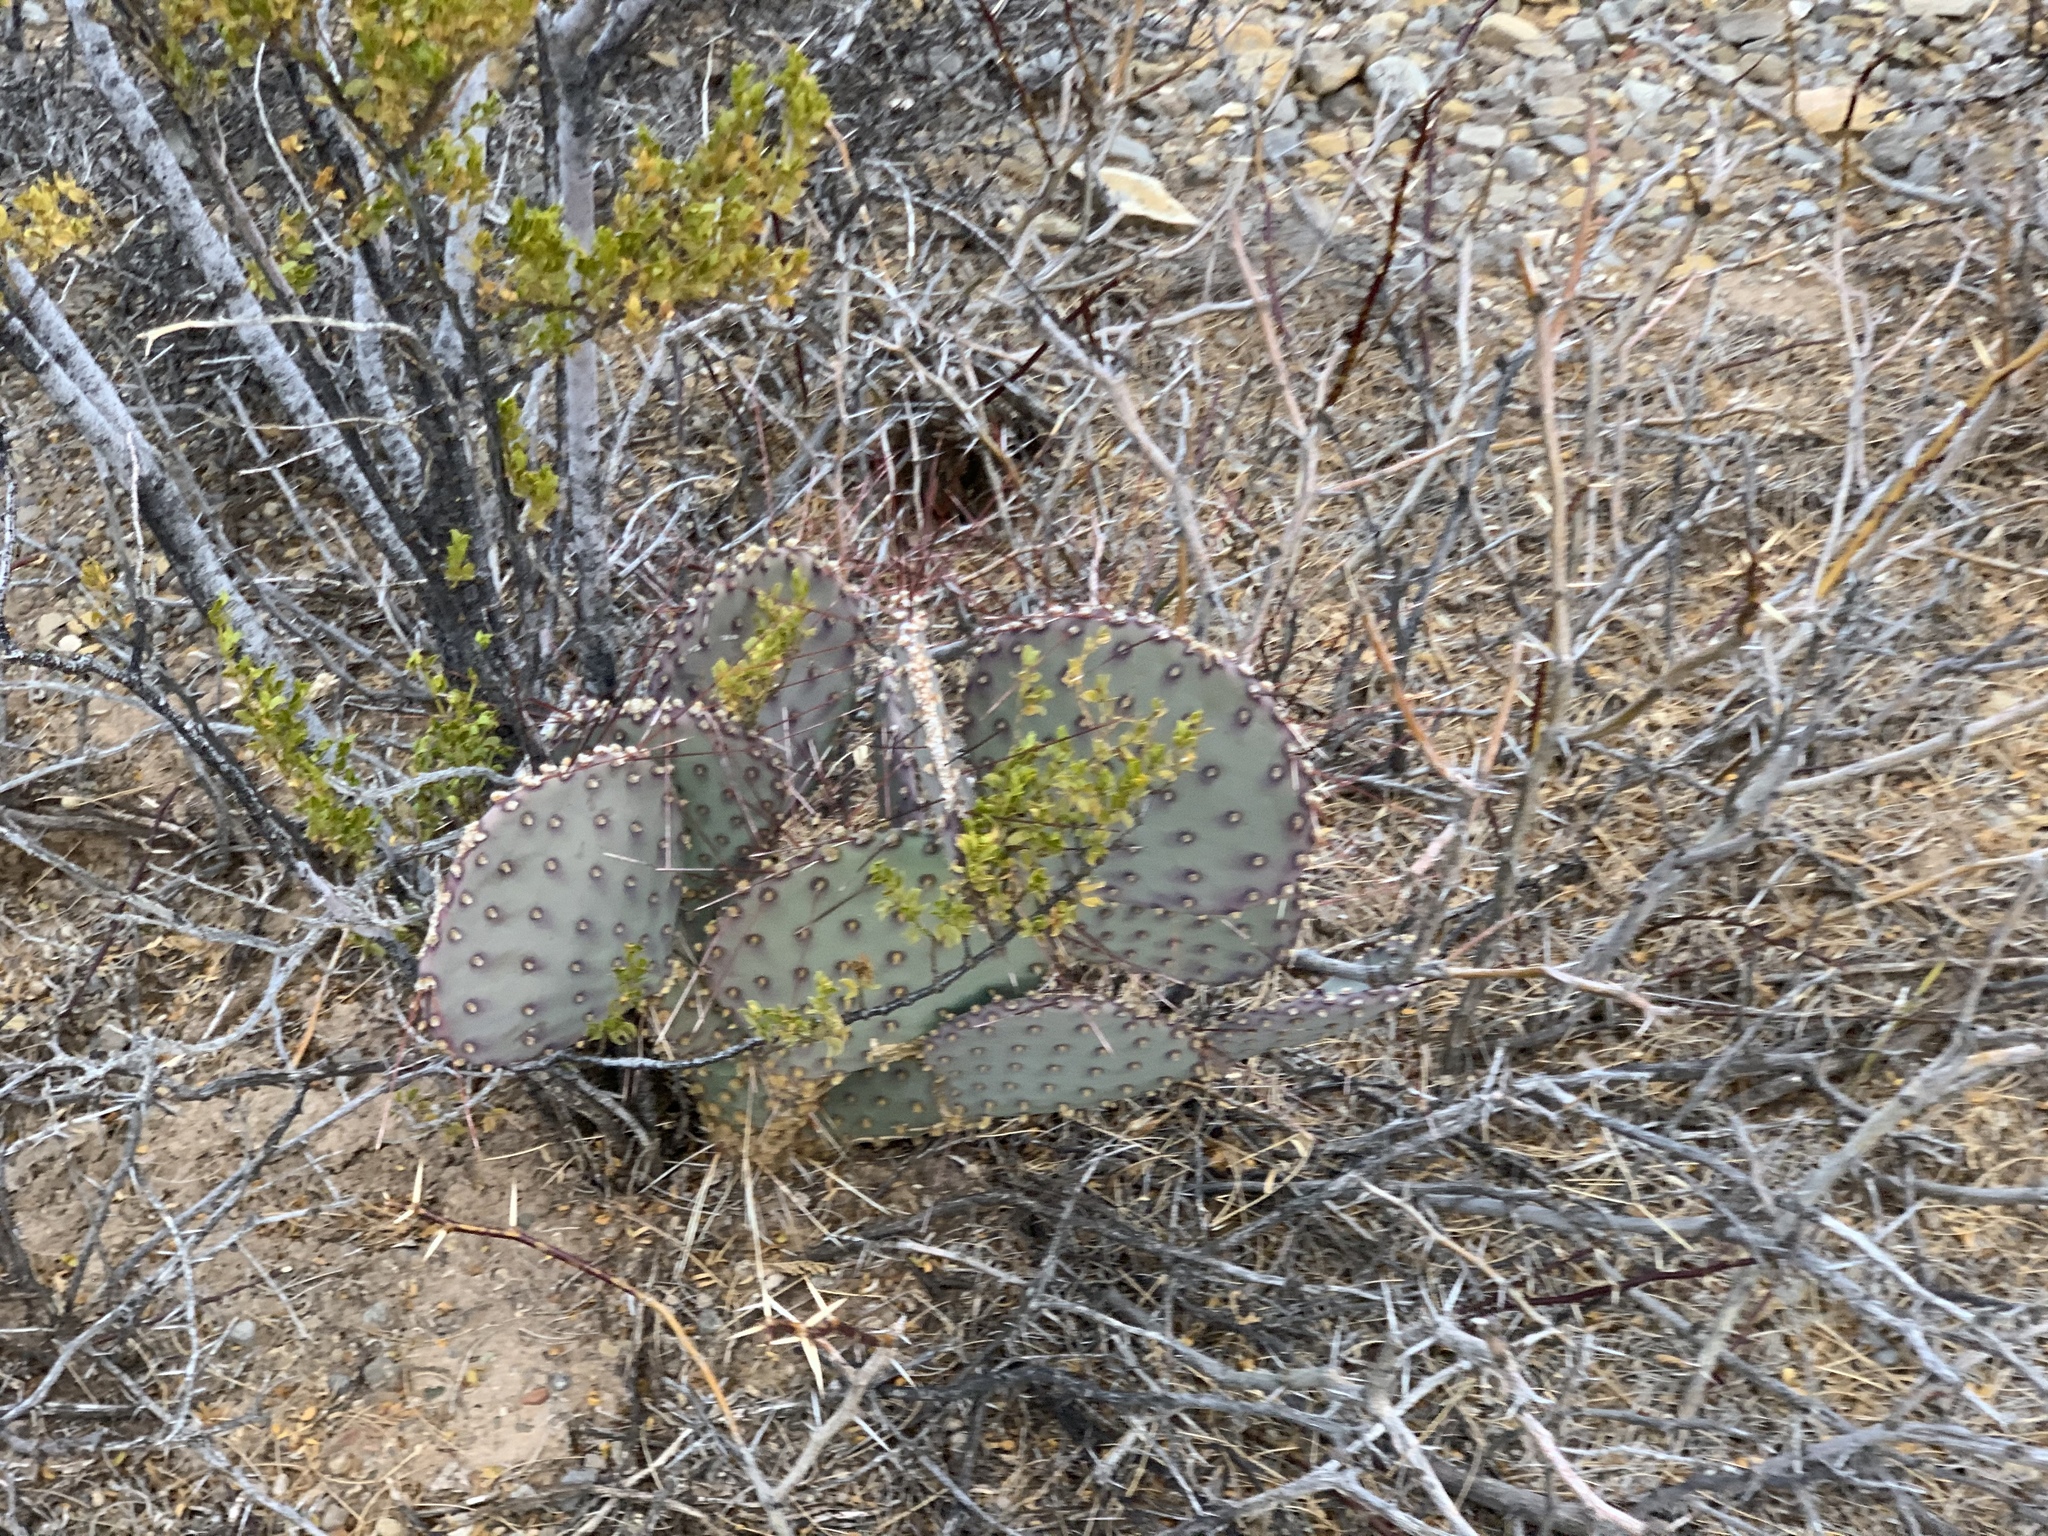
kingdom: Plantae
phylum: Tracheophyta
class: Magnoliopsida
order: Caryophyllales
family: Cactaceae
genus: Opuntia
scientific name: Opuntia macrocentra
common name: Purple prickly-pear
